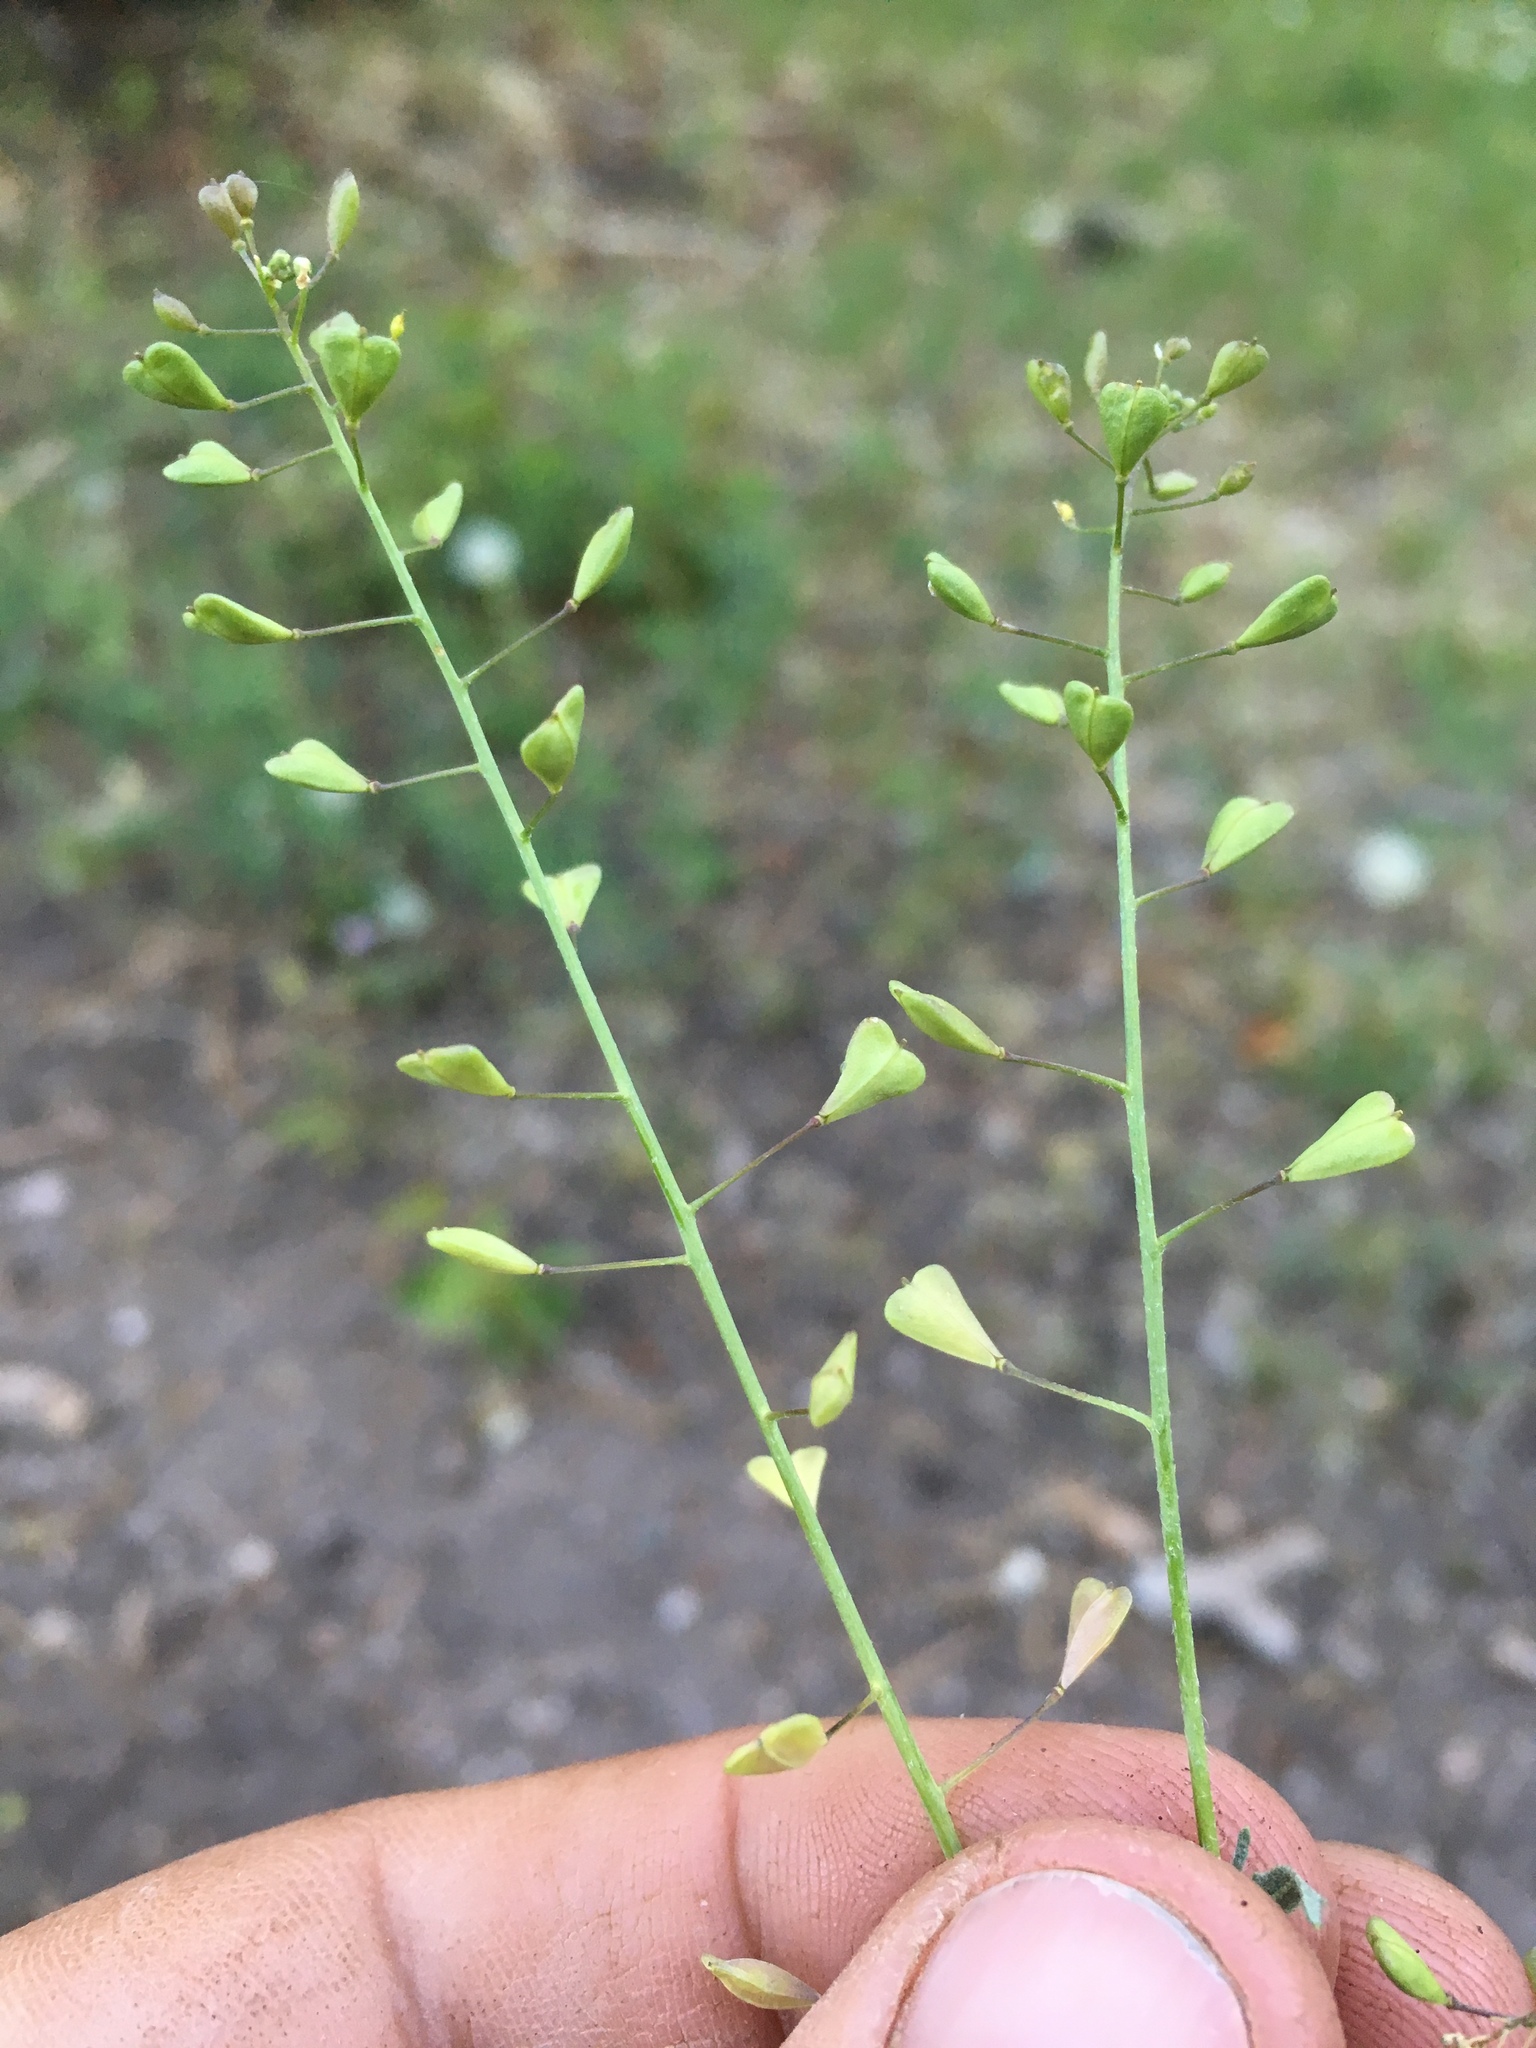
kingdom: Plantae
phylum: Tracheophyta
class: Magnoliopsida
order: Brassicales
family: Brassicaceae
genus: Capsella
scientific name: Capsella bursa-pastoris
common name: Shepherd's purse
